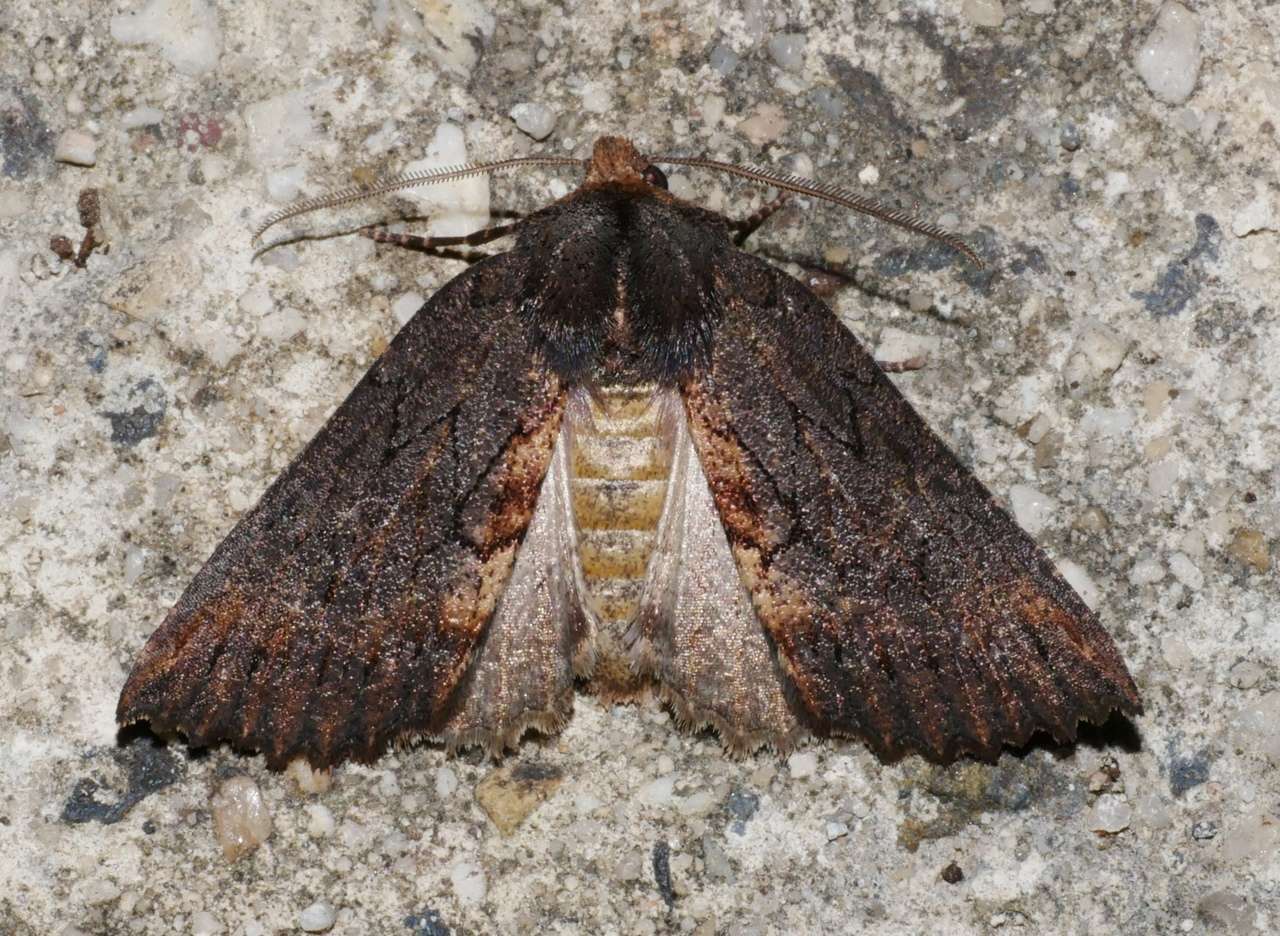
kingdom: Animalia
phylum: Arthropoda
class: Insecta
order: Lepidoptera
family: Geometridae
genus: Nisista
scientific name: Nisista serrata
